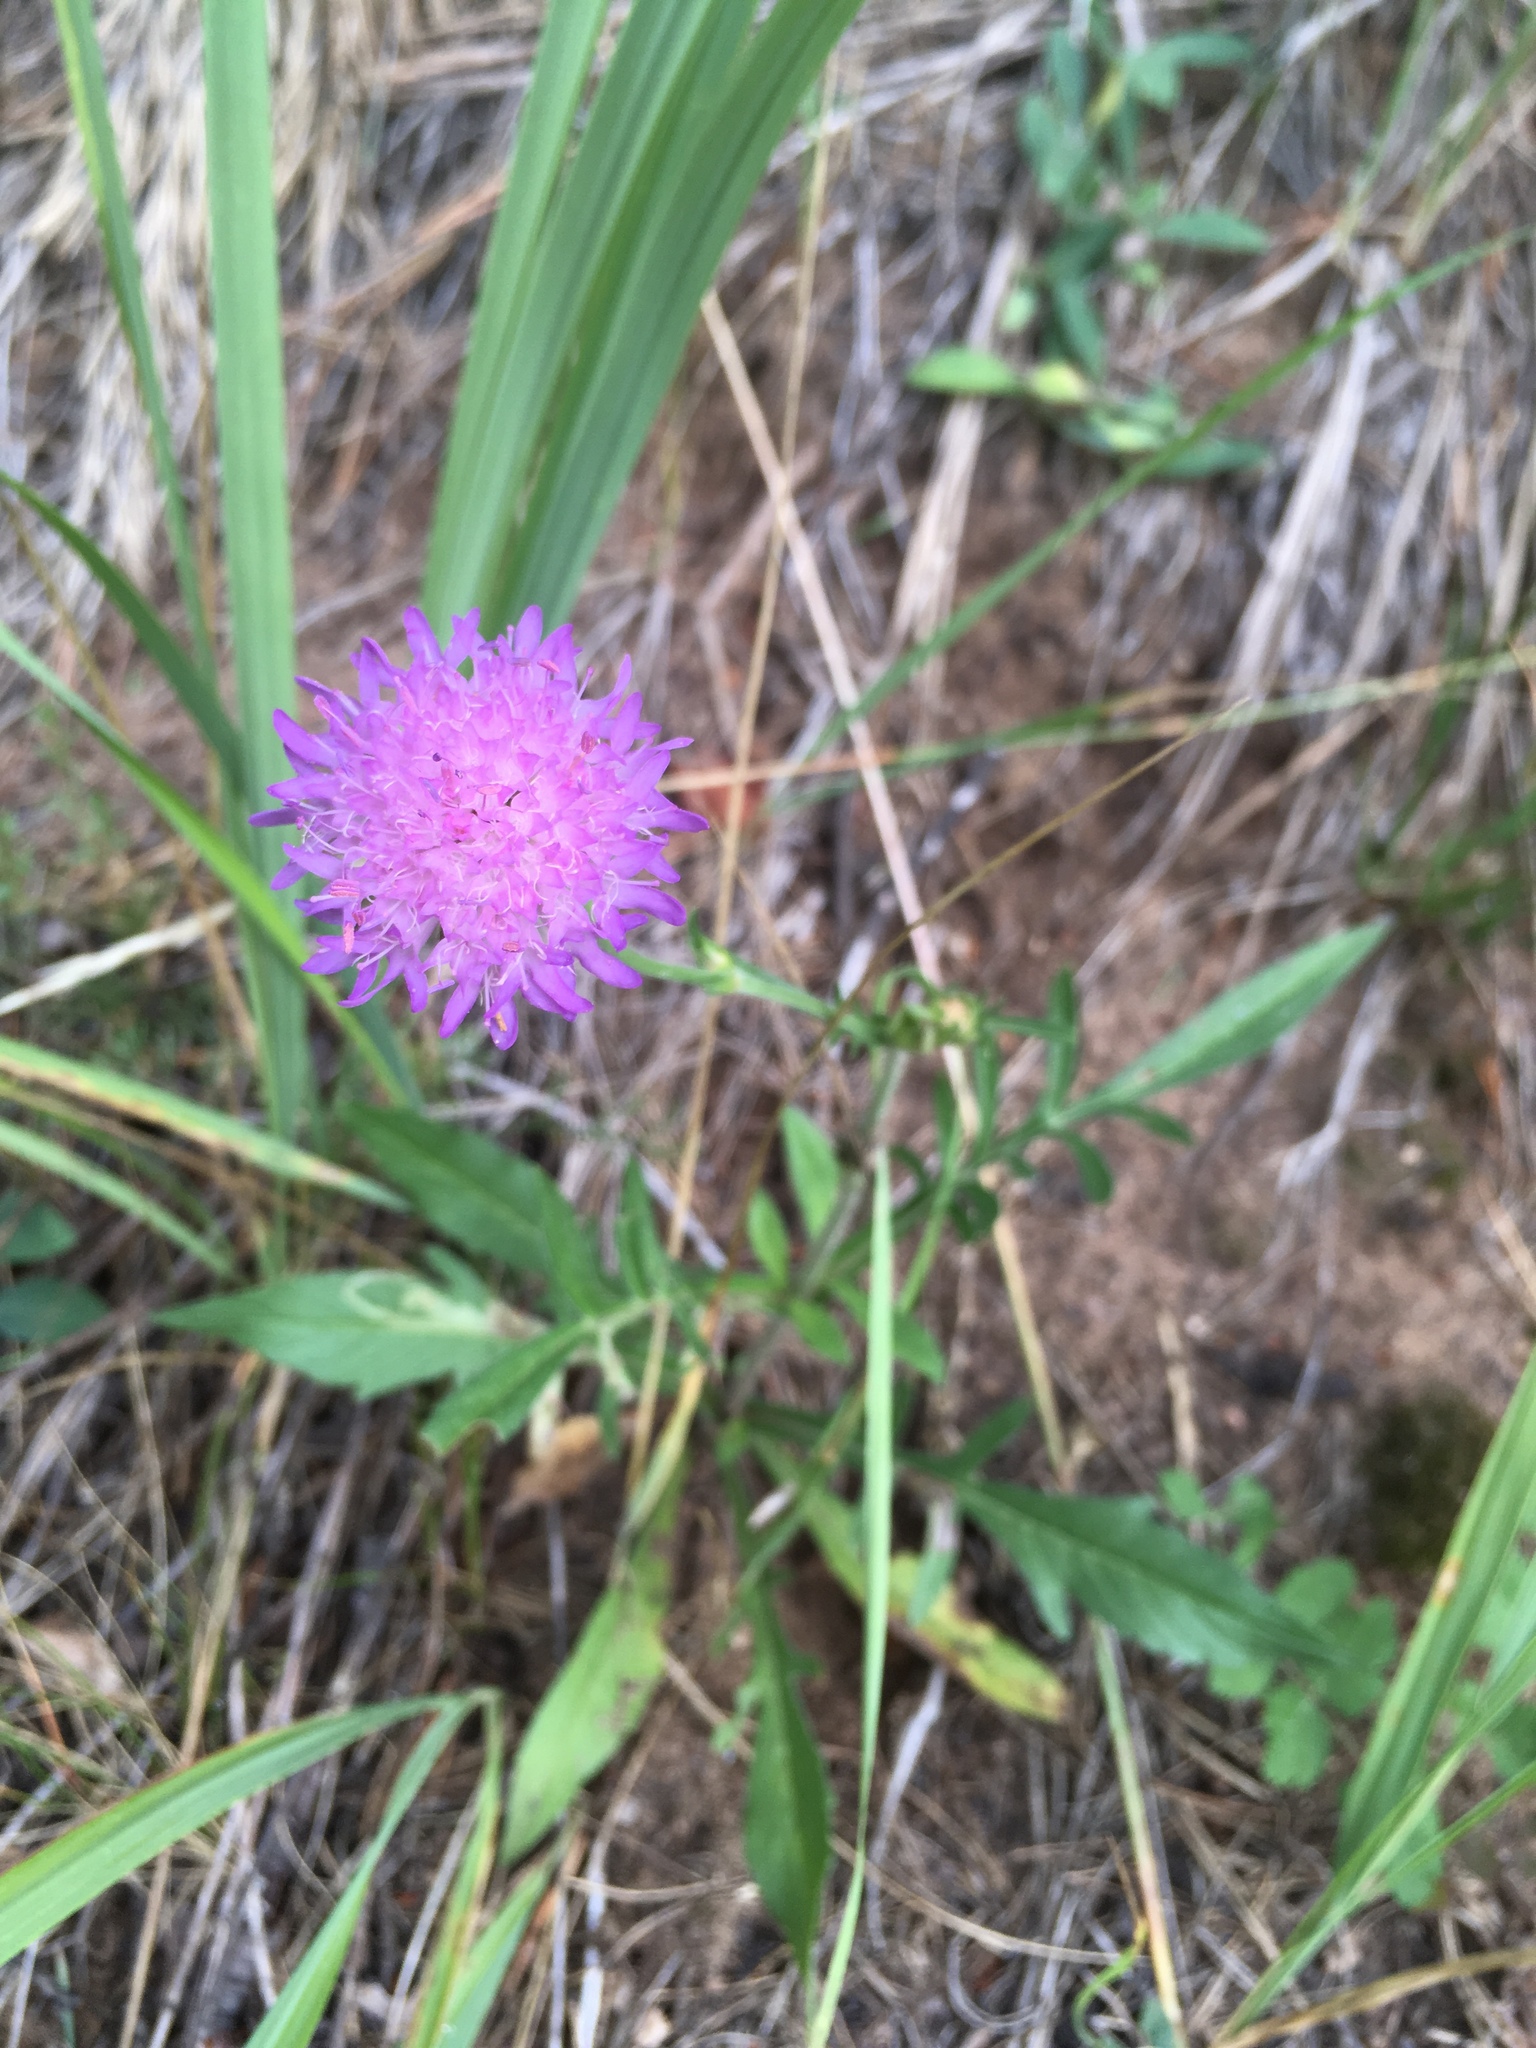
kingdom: Plantae
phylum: Tracheophyta
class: Magnoliopsida
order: Dipsacales
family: Caprifoliaceae
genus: Knautia
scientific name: Knautia arvensis
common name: Field scabiosa
